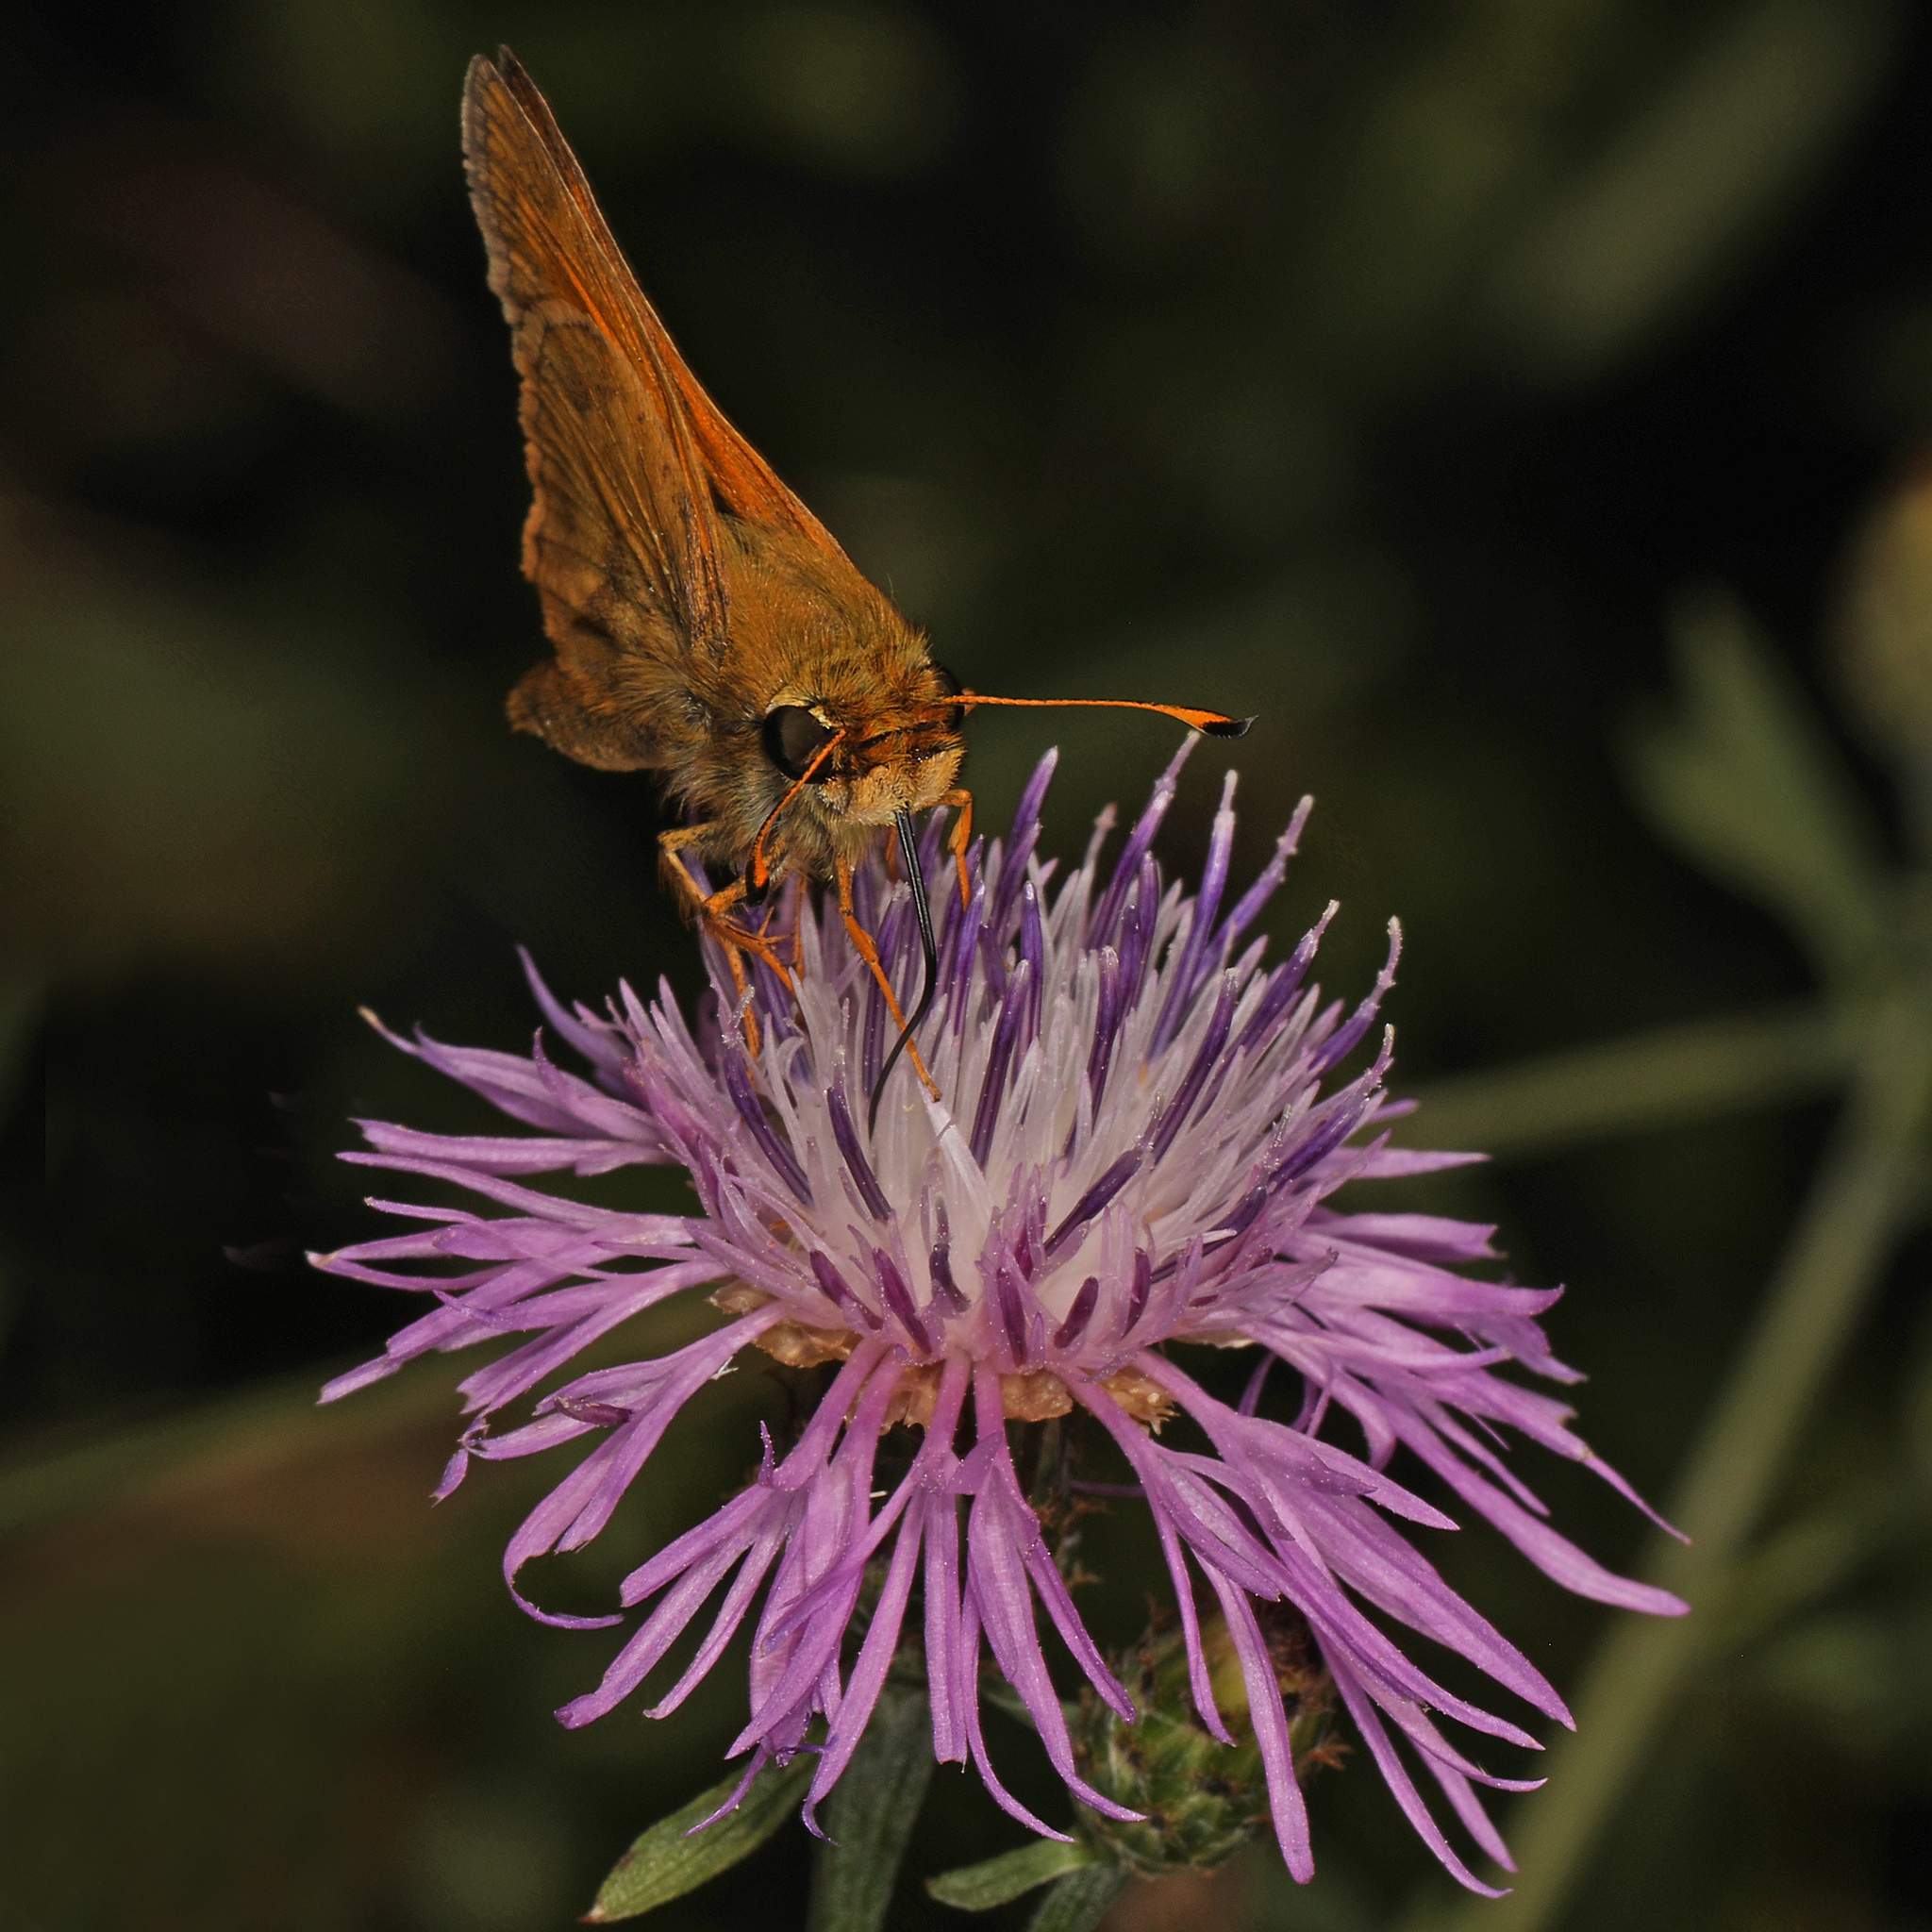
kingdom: Animalia
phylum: Arthropoda
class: Insecta
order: Lepidoptera
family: Hesperiidae
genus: Atalopedes
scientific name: Atalopedes
